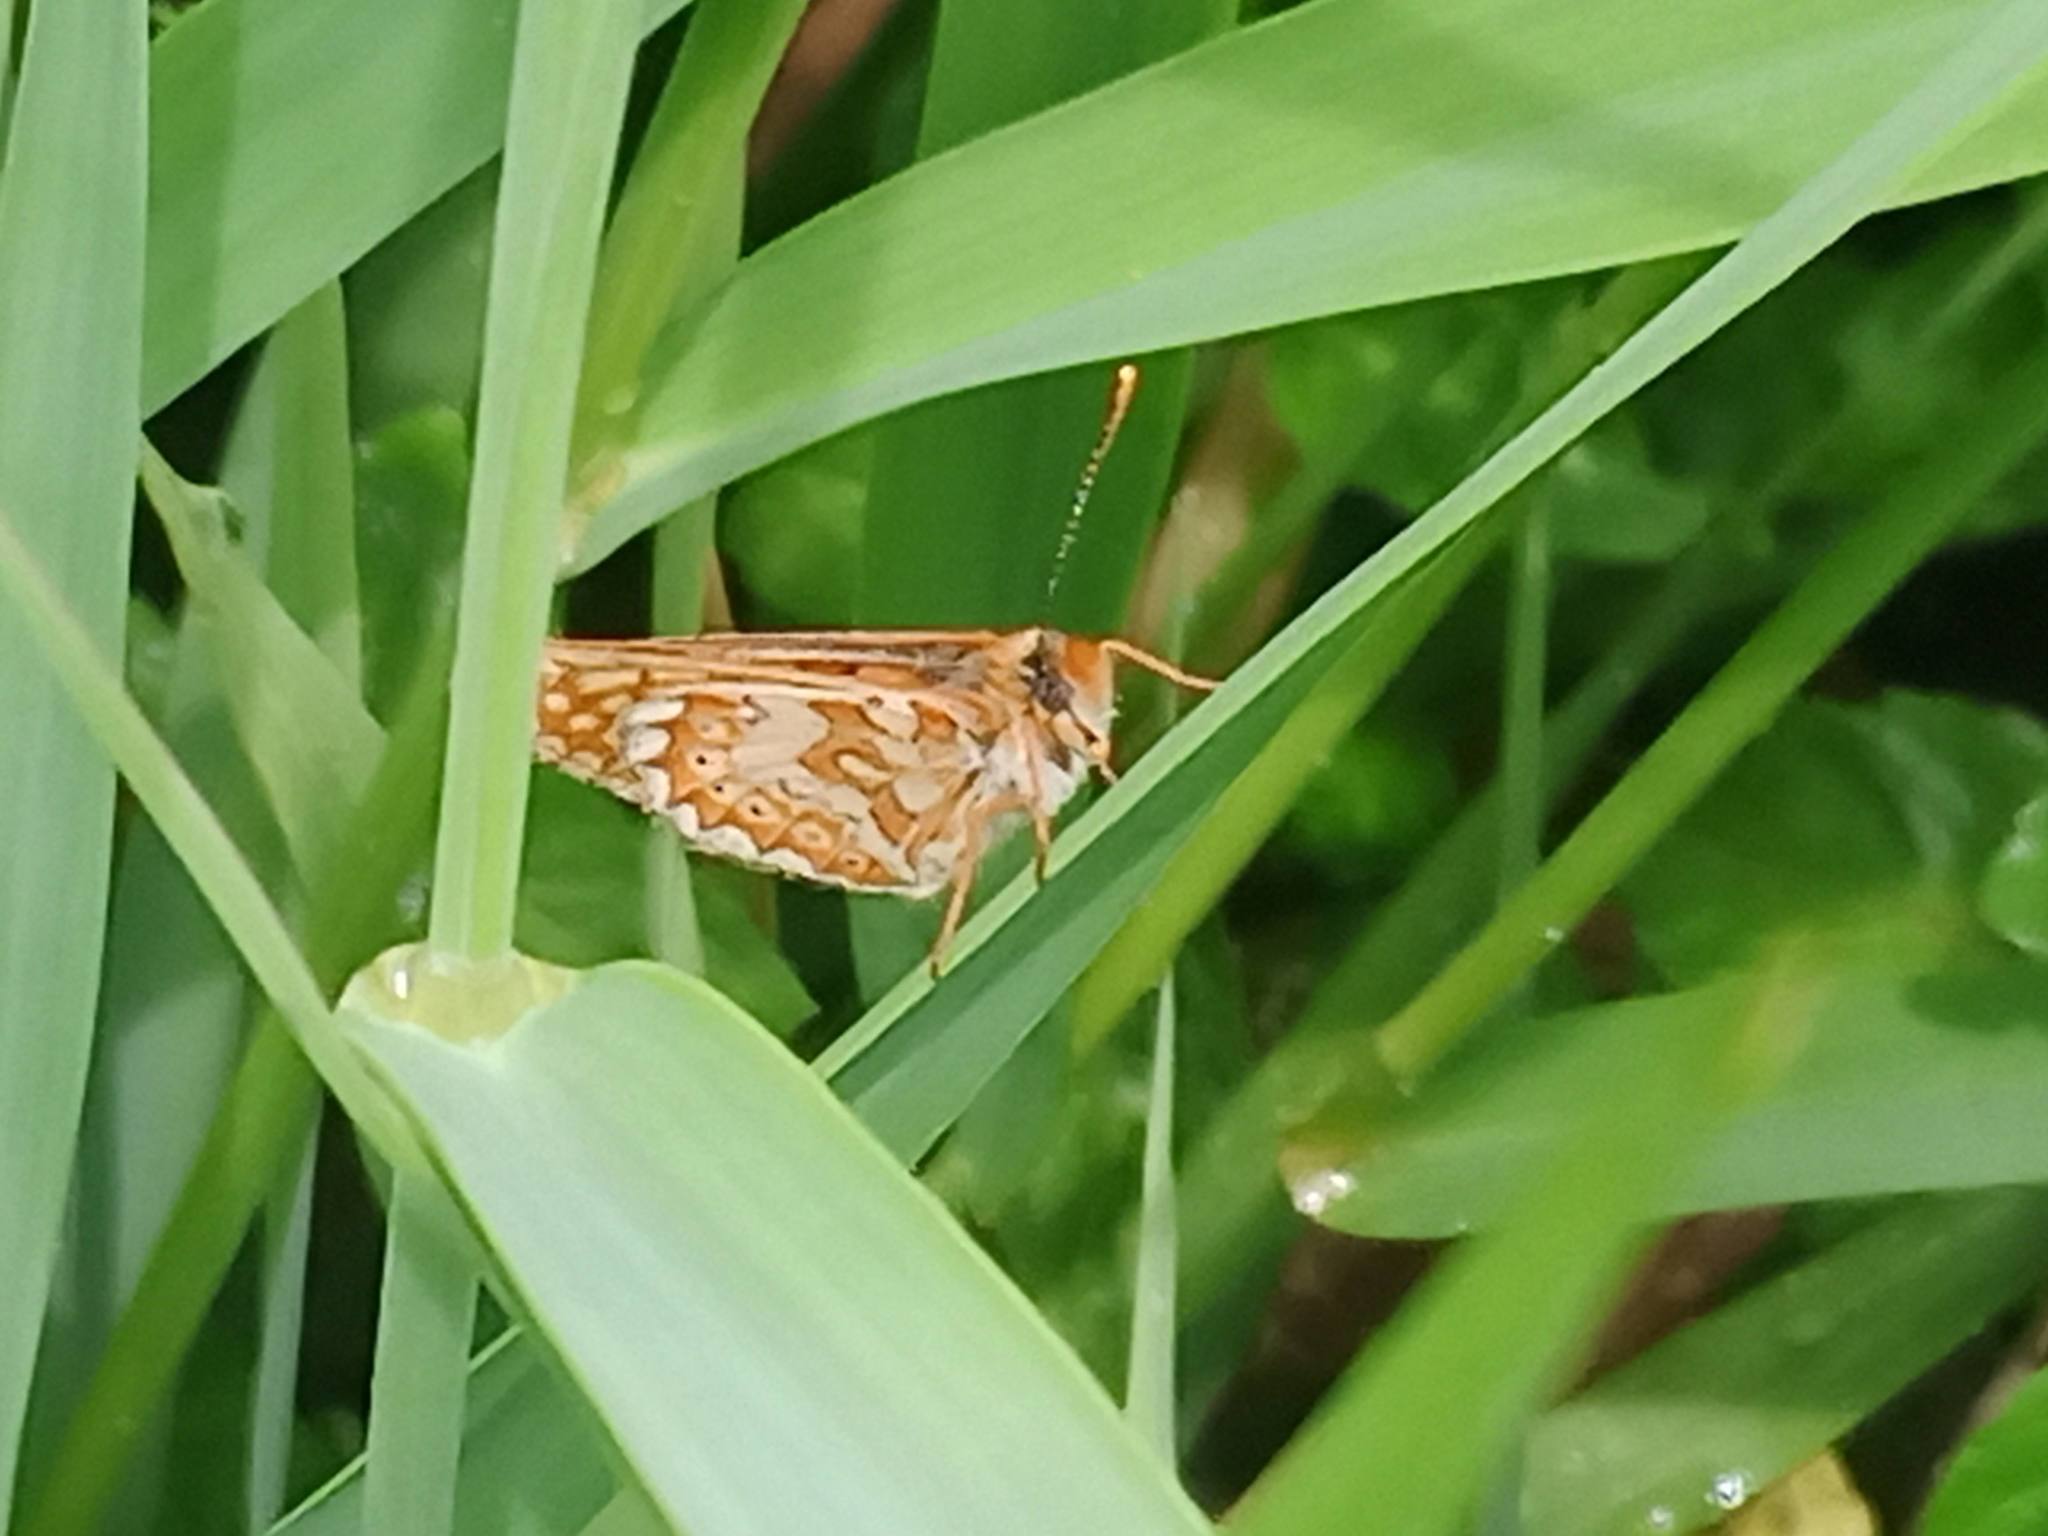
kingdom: Animalia
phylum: Arthropoda
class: Insecta
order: Lepidoptera
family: Nymphalidae
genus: Euphydryas
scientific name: Euphydryas aurinia
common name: Marsh fritillary
